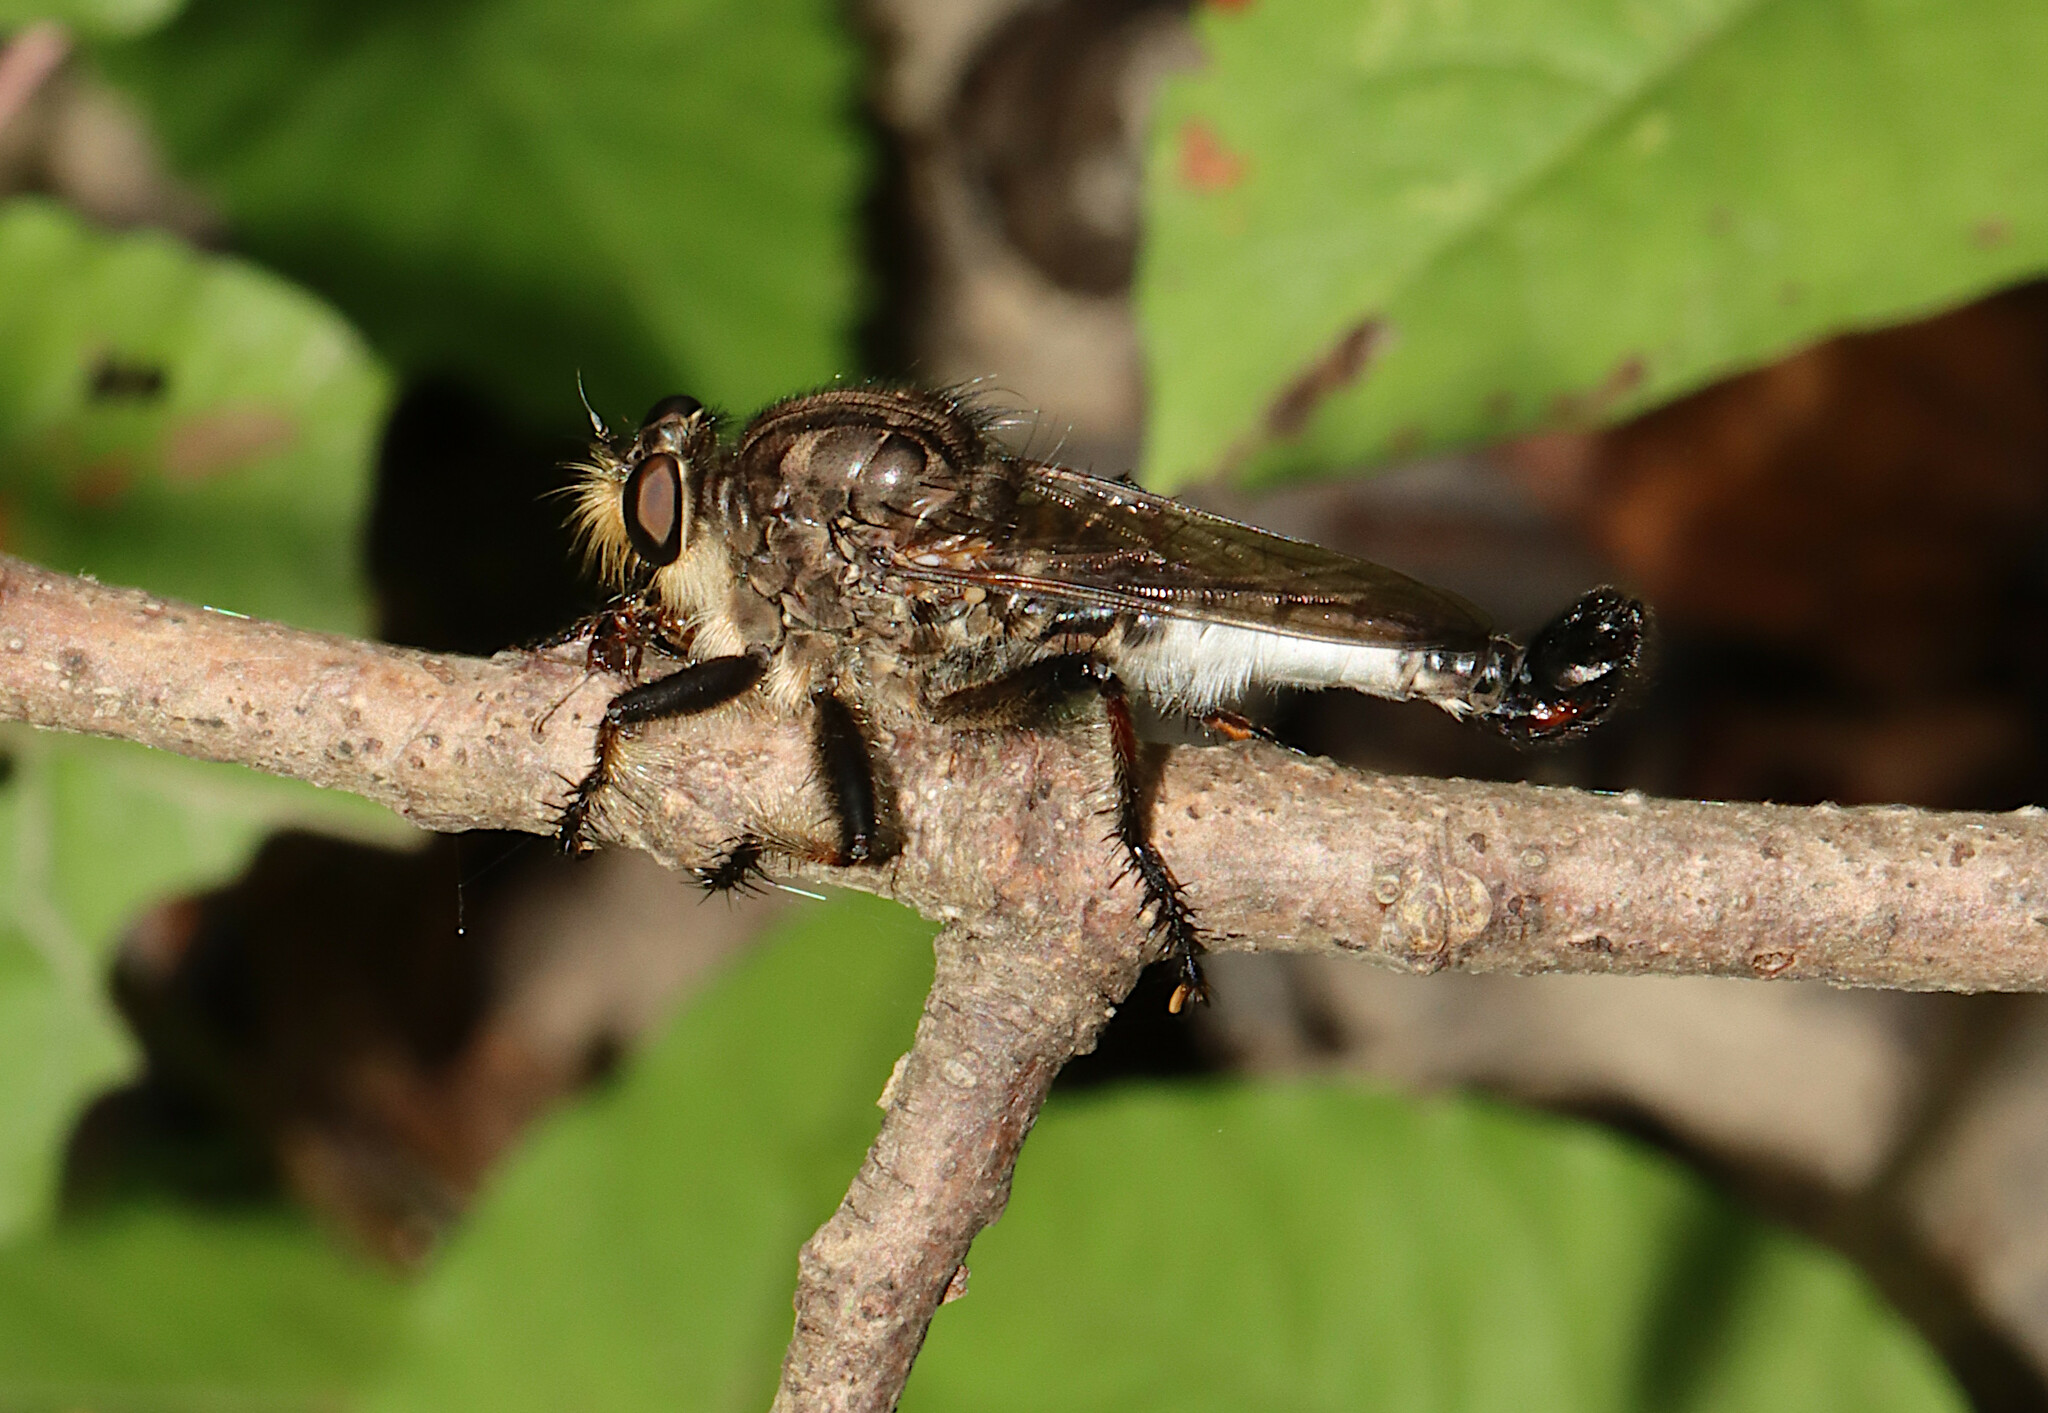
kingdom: Animalia
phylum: Arthropoda
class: Insecta
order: Diptera
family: Asilidae
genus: Efferia
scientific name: Efferia nemoralis
